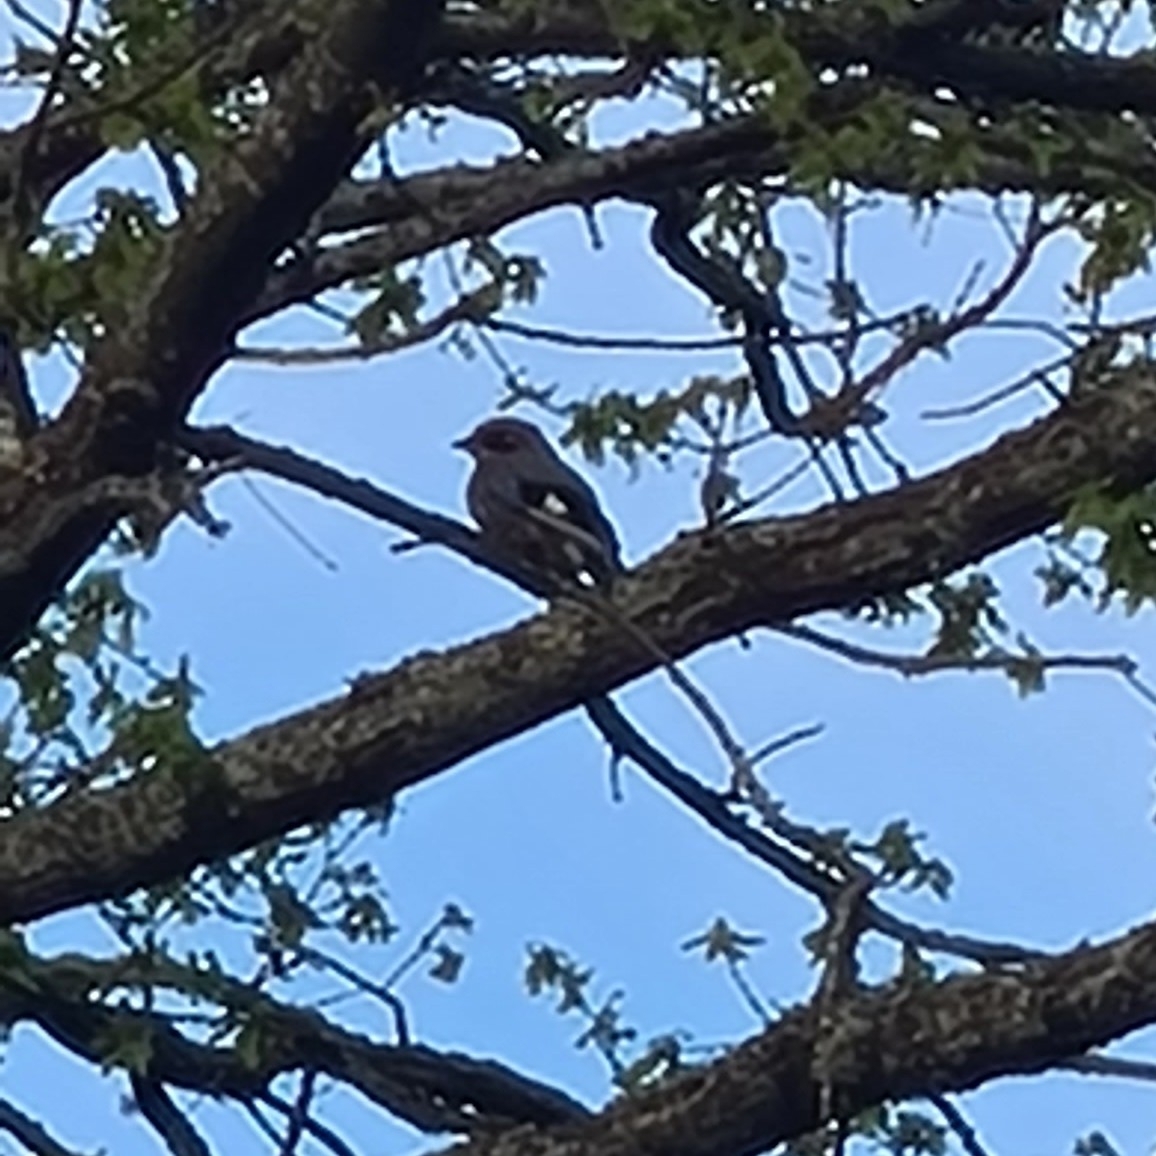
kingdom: Animalia
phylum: Chordata
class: Aves
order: Passeriformes
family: Corvidae
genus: Garrulus
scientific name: Garrulus glandarius
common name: Eurasian jay
